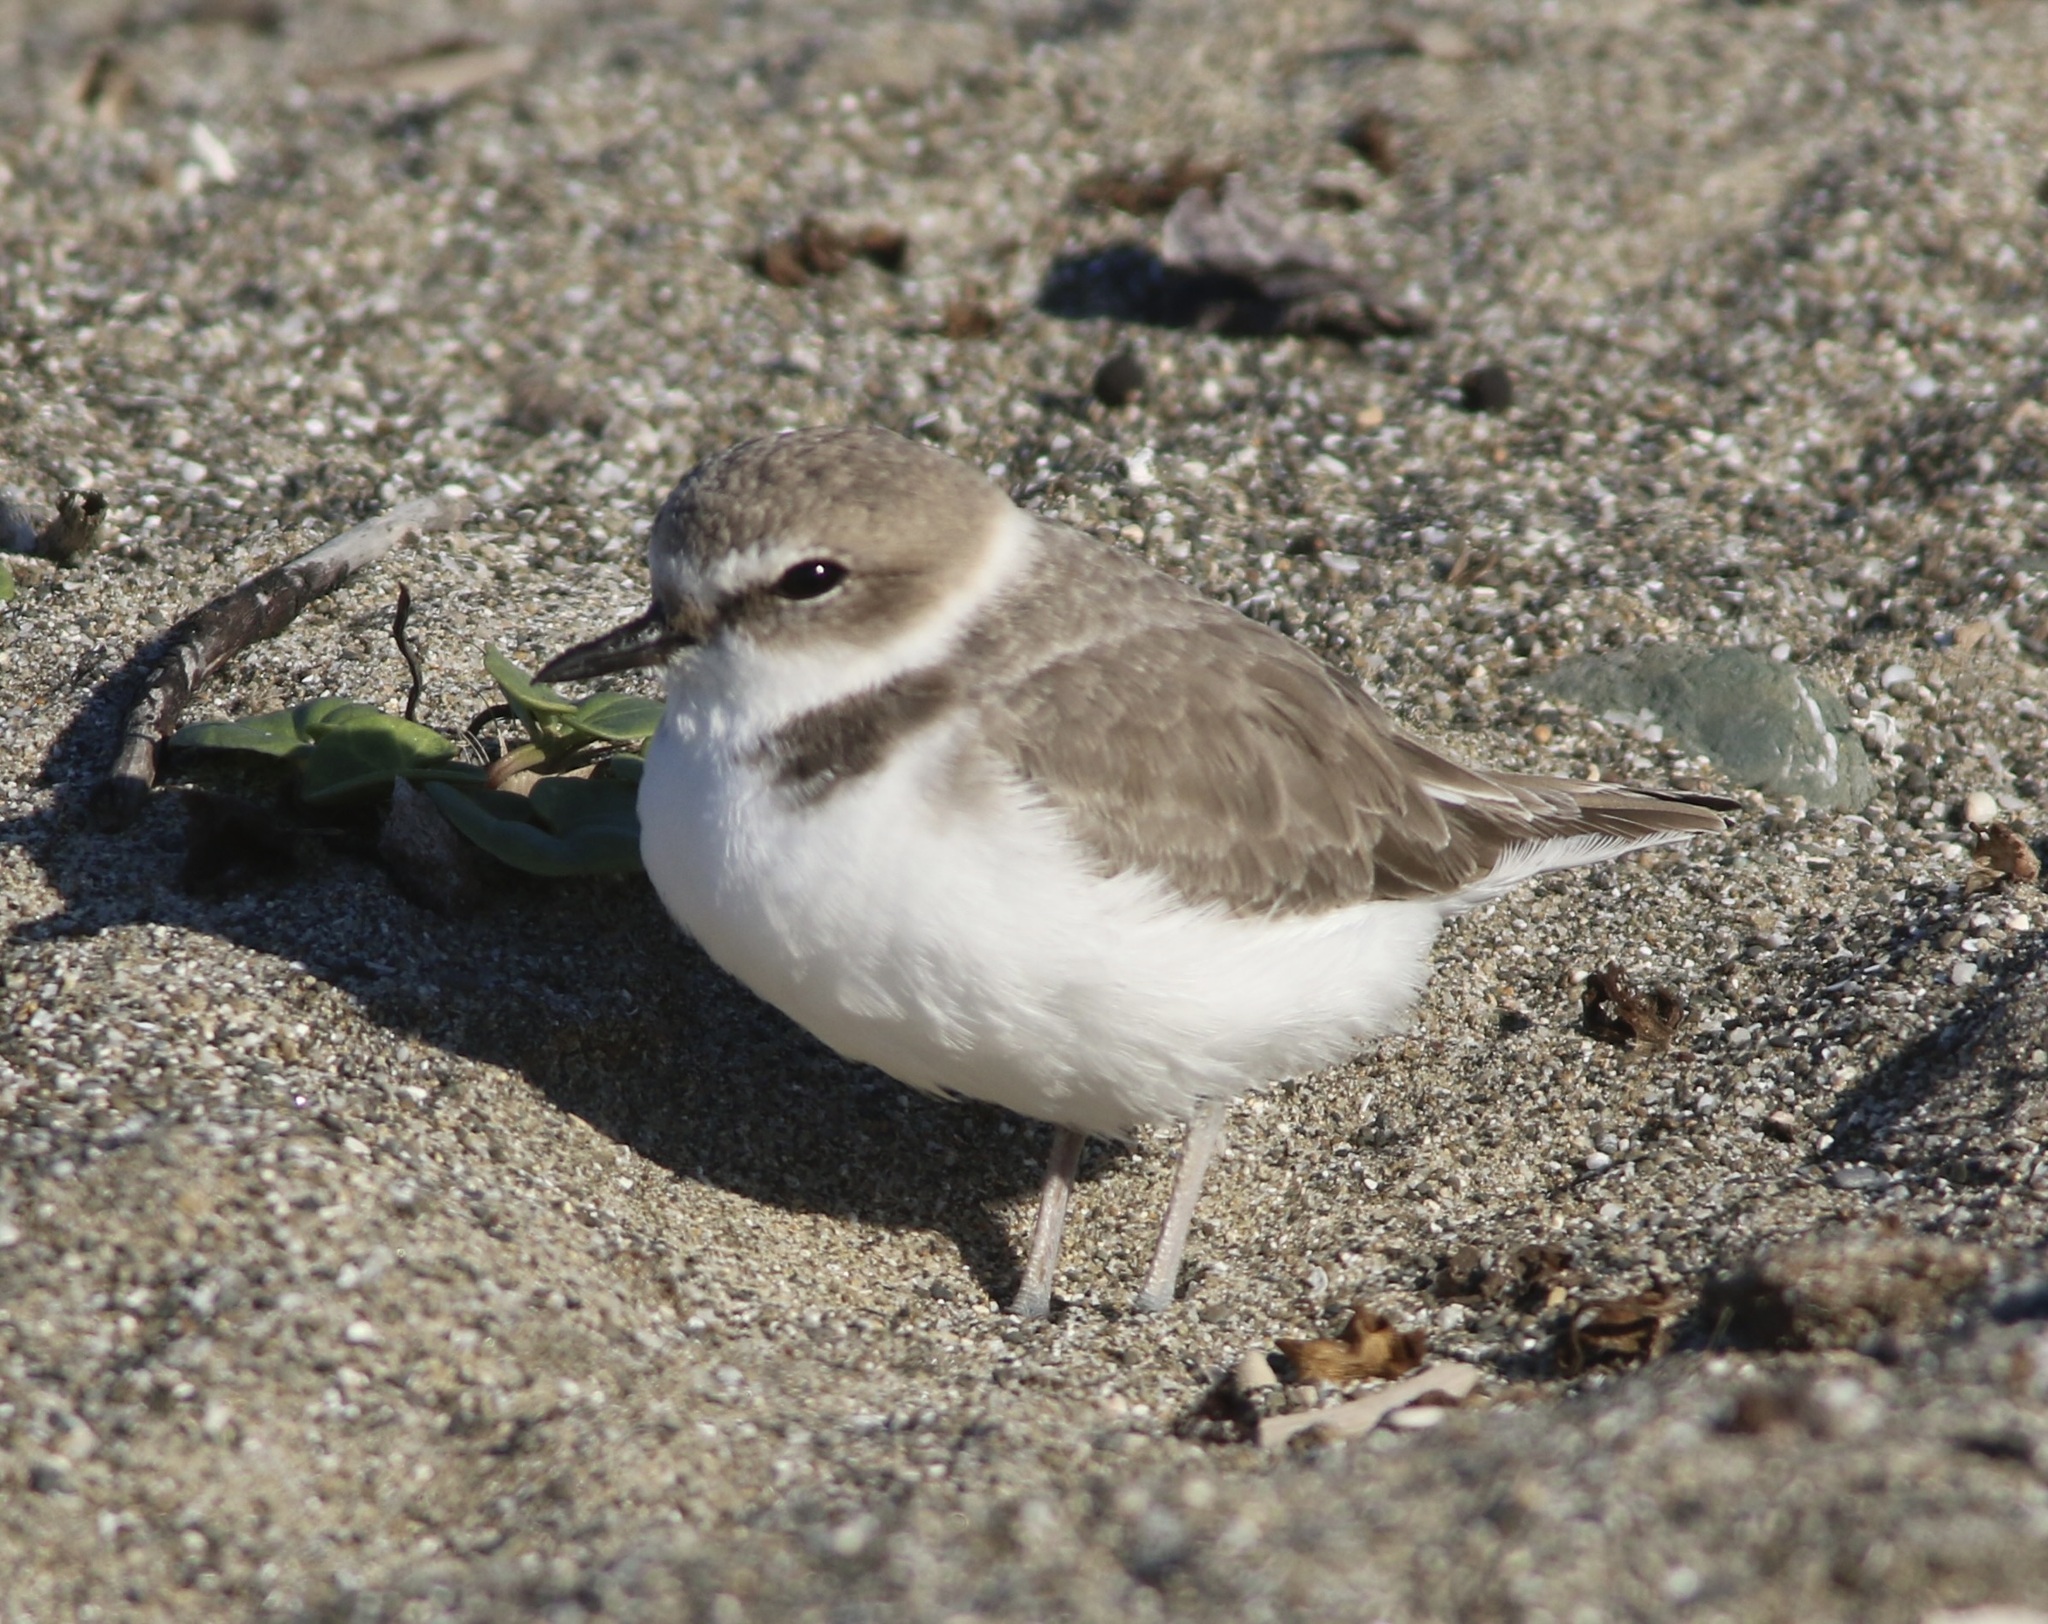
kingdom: Animalia
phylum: Chordata
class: Aves
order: Charadriiformes
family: Charadriidae
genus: Anarhynchus
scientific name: Anarhynchus
